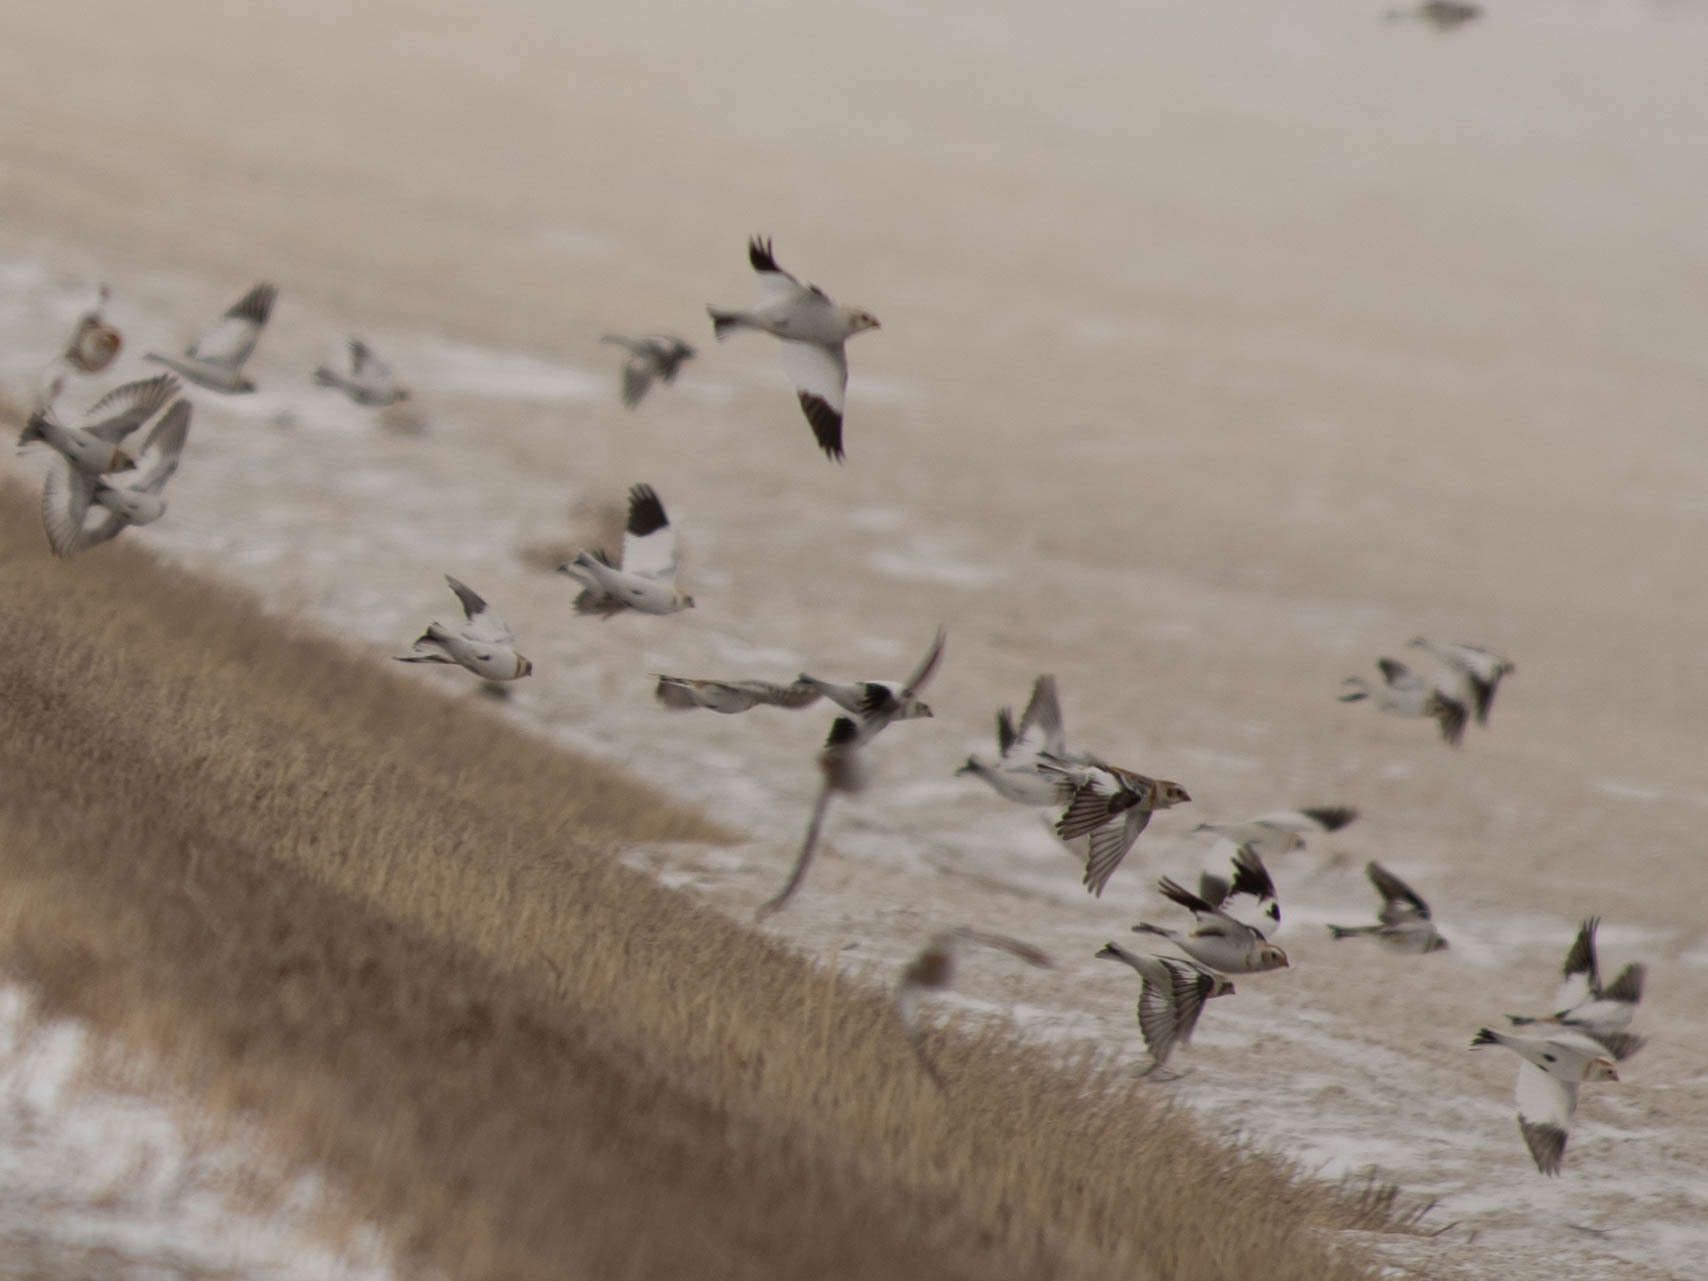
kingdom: Animalia
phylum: Chordata
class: Aves
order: Passeriformes
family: Calcariidae
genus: Plectrophenax
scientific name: Plectrophenax nivalis
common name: Snow bunting
